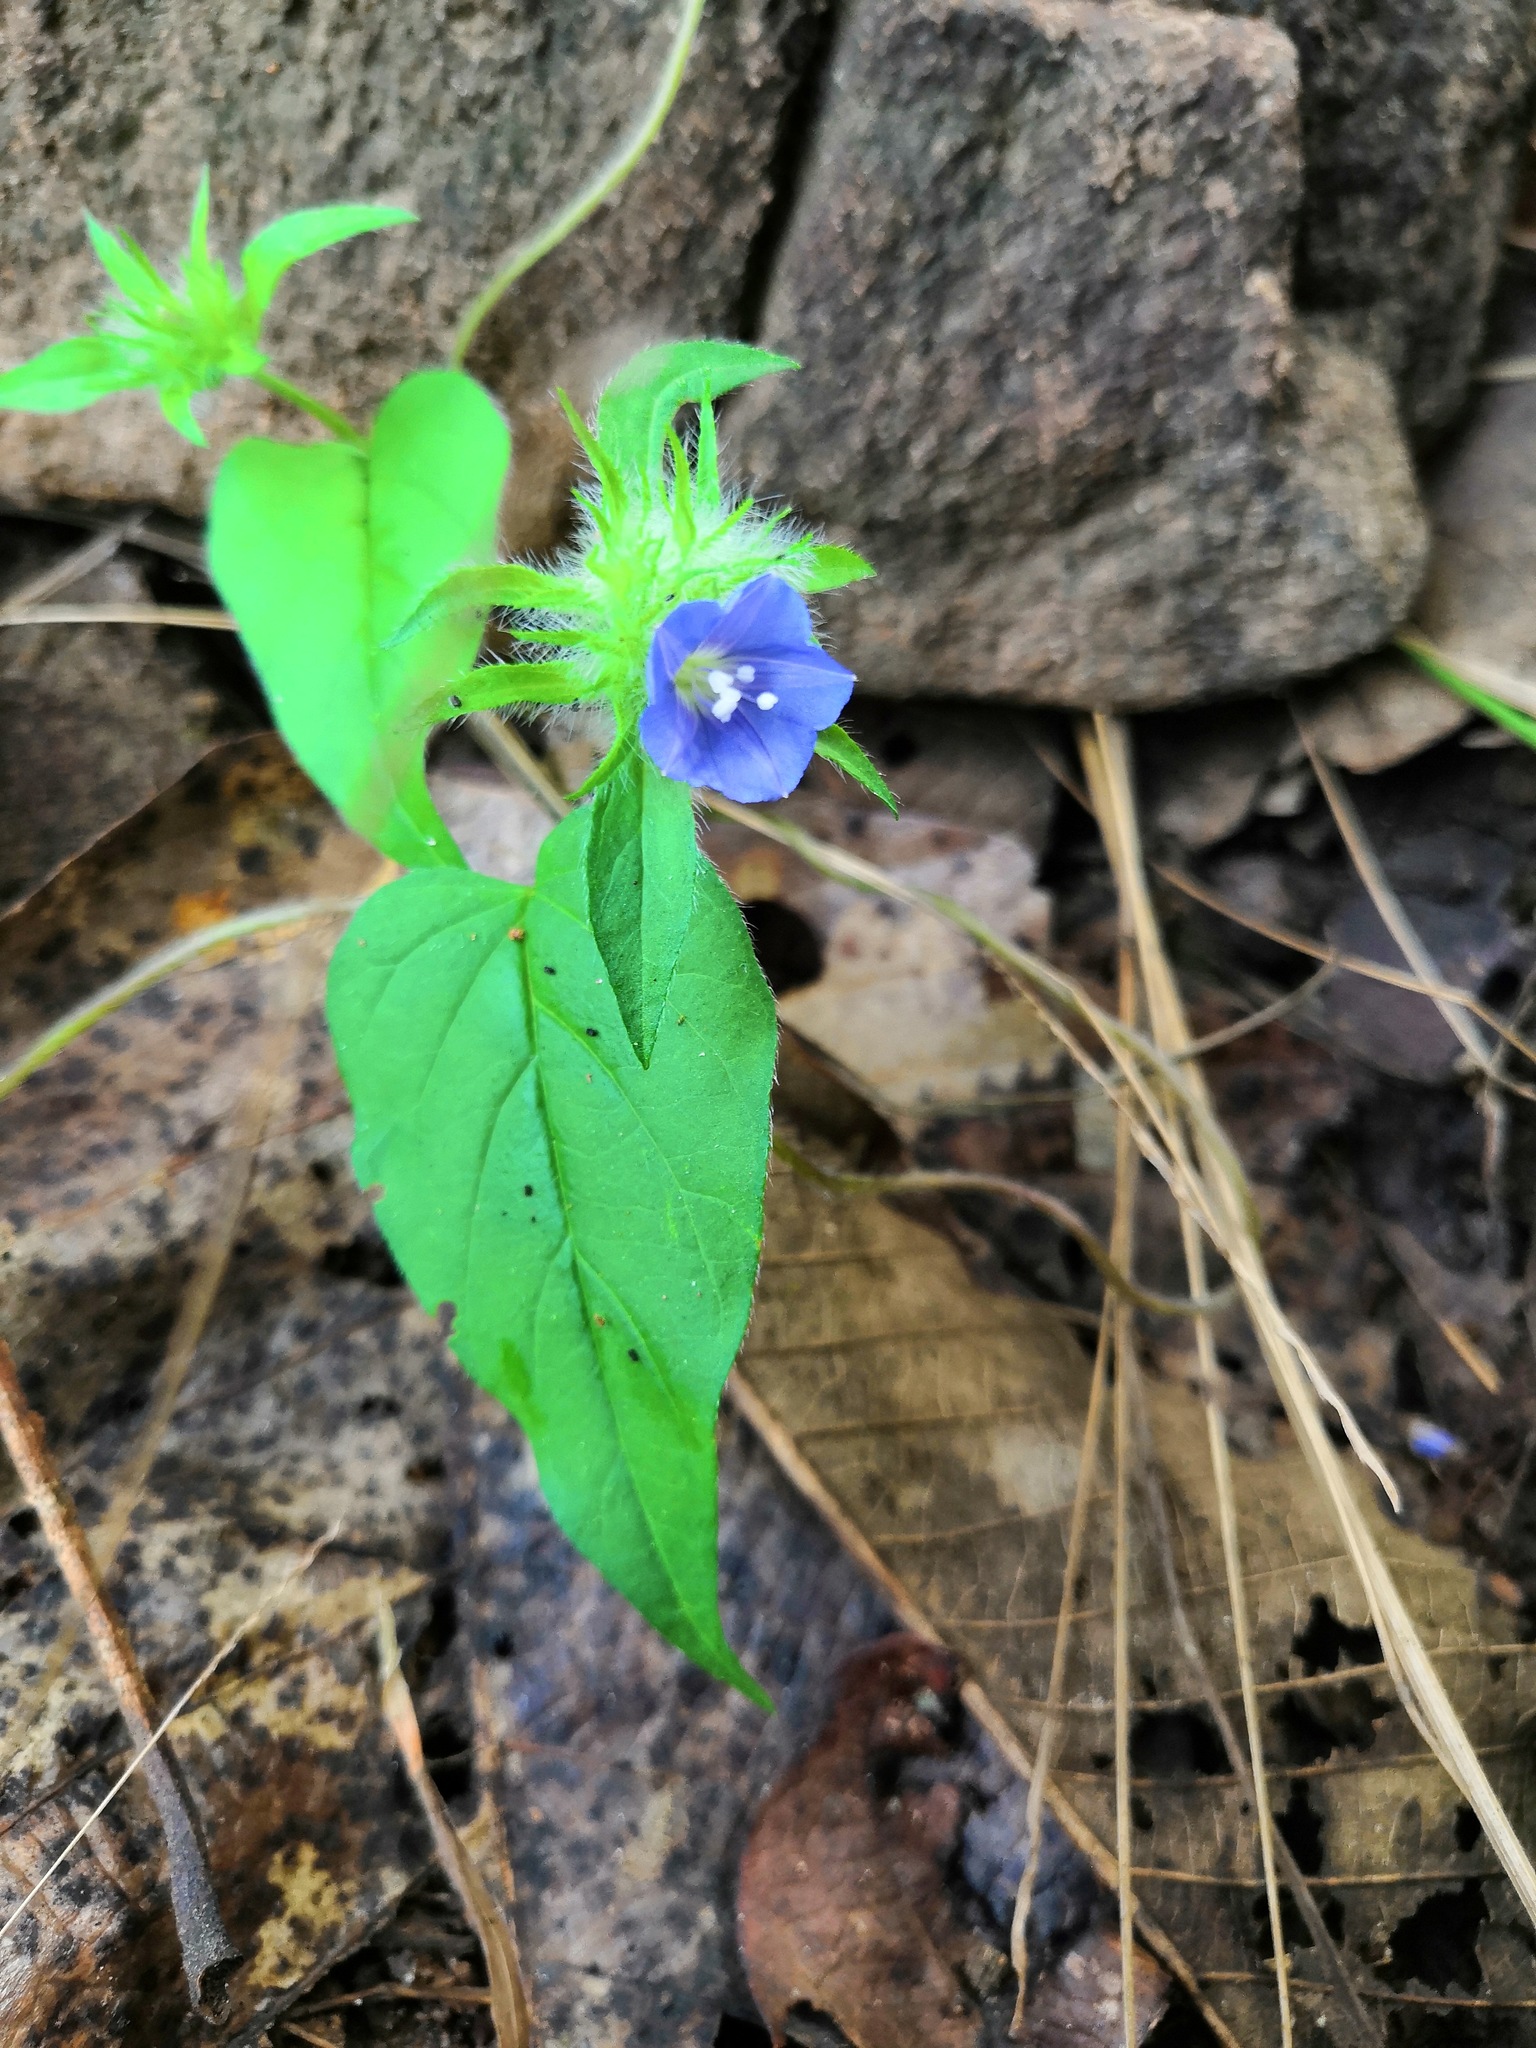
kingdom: Plantae
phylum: Tracheophyta
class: Magnoliopsida
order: Solanales
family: Convolvulaceae
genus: Jacquemontia
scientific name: Jacquemontia tamnifolia
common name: Hairy clustervine
